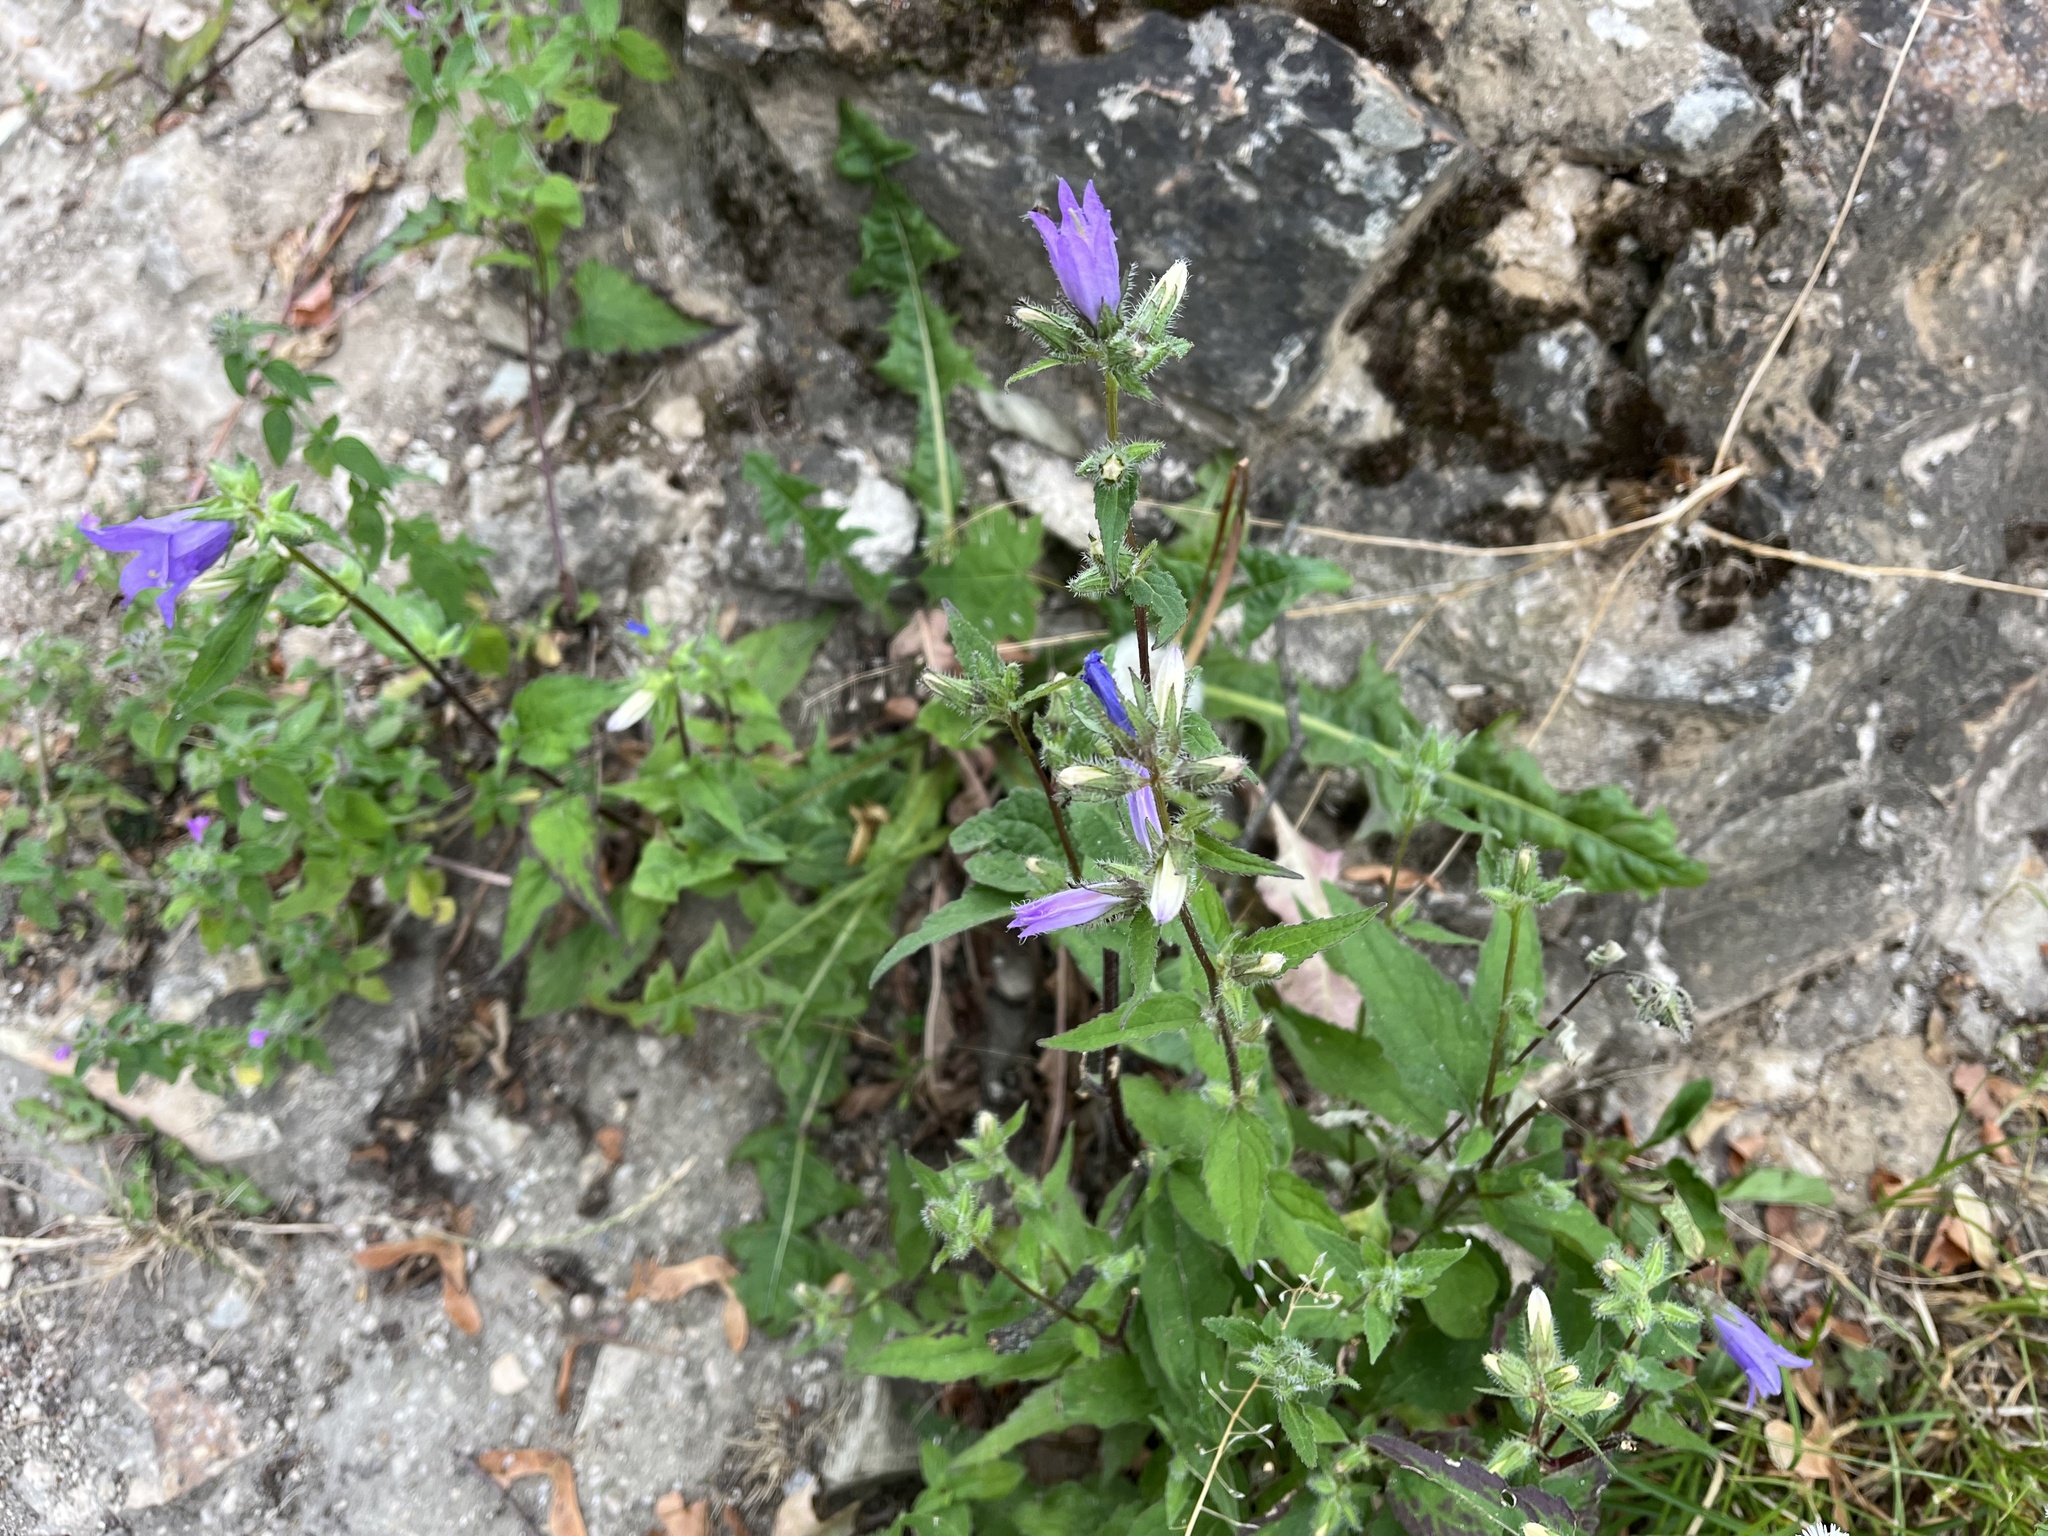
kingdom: Plantae
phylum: Tracheophyta
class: Magnoliopsida
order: Asterales
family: Campanulaceae
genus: Campanula
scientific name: Campanula trachelium
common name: Nettle-leaved bellflower
